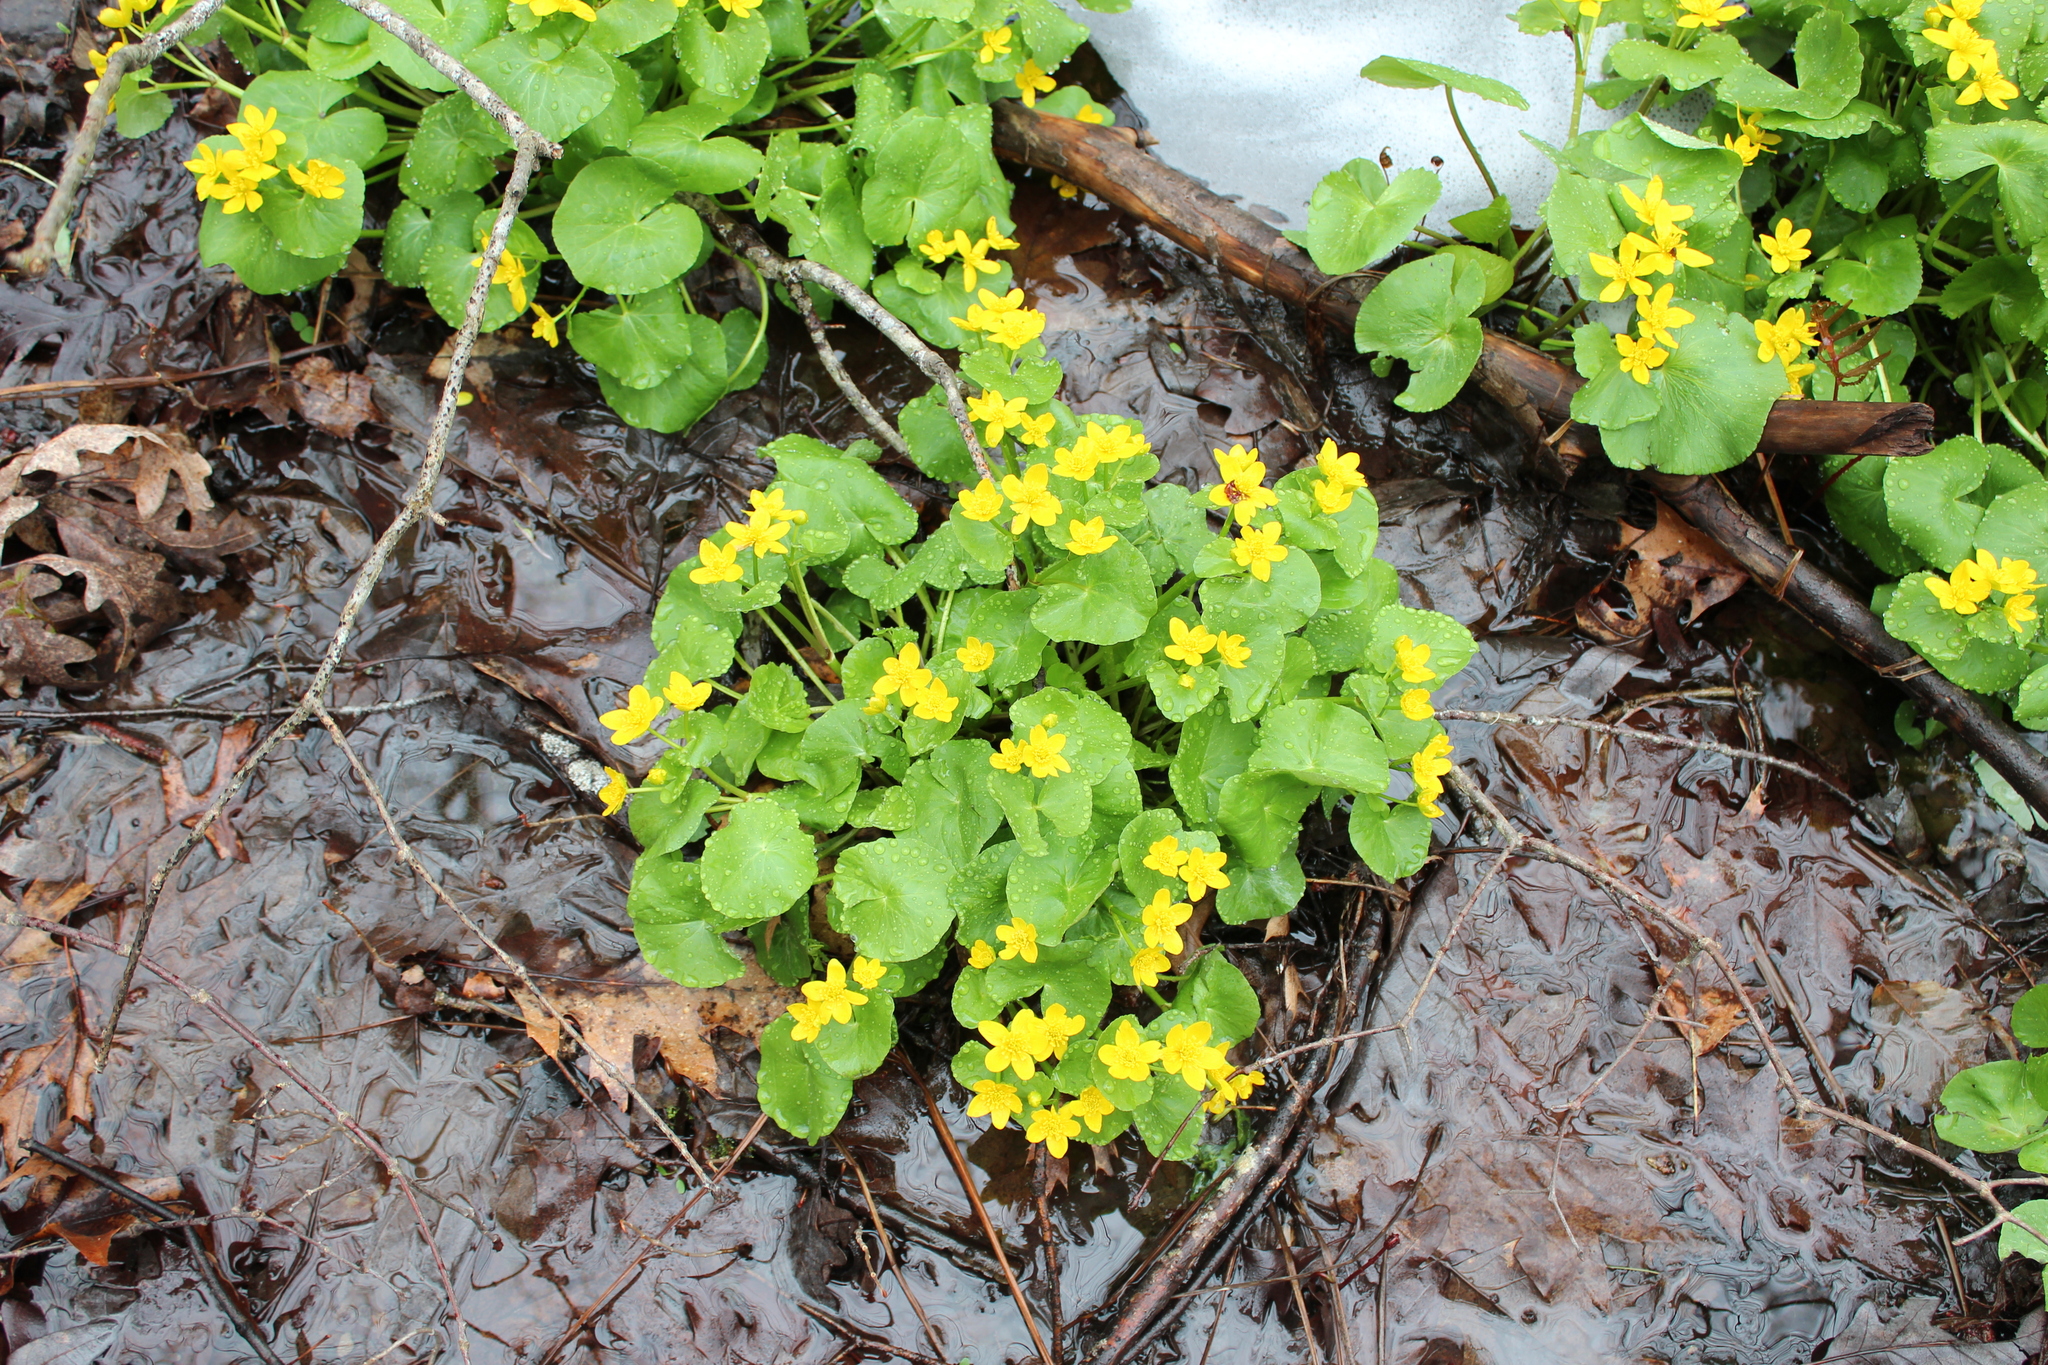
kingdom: Plantae
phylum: Tracheophyta
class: Magnoliopsida
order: Ranunculales
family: Ranunculaceae
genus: Caltha
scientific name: Caltha palustris
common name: Marsh marigold
